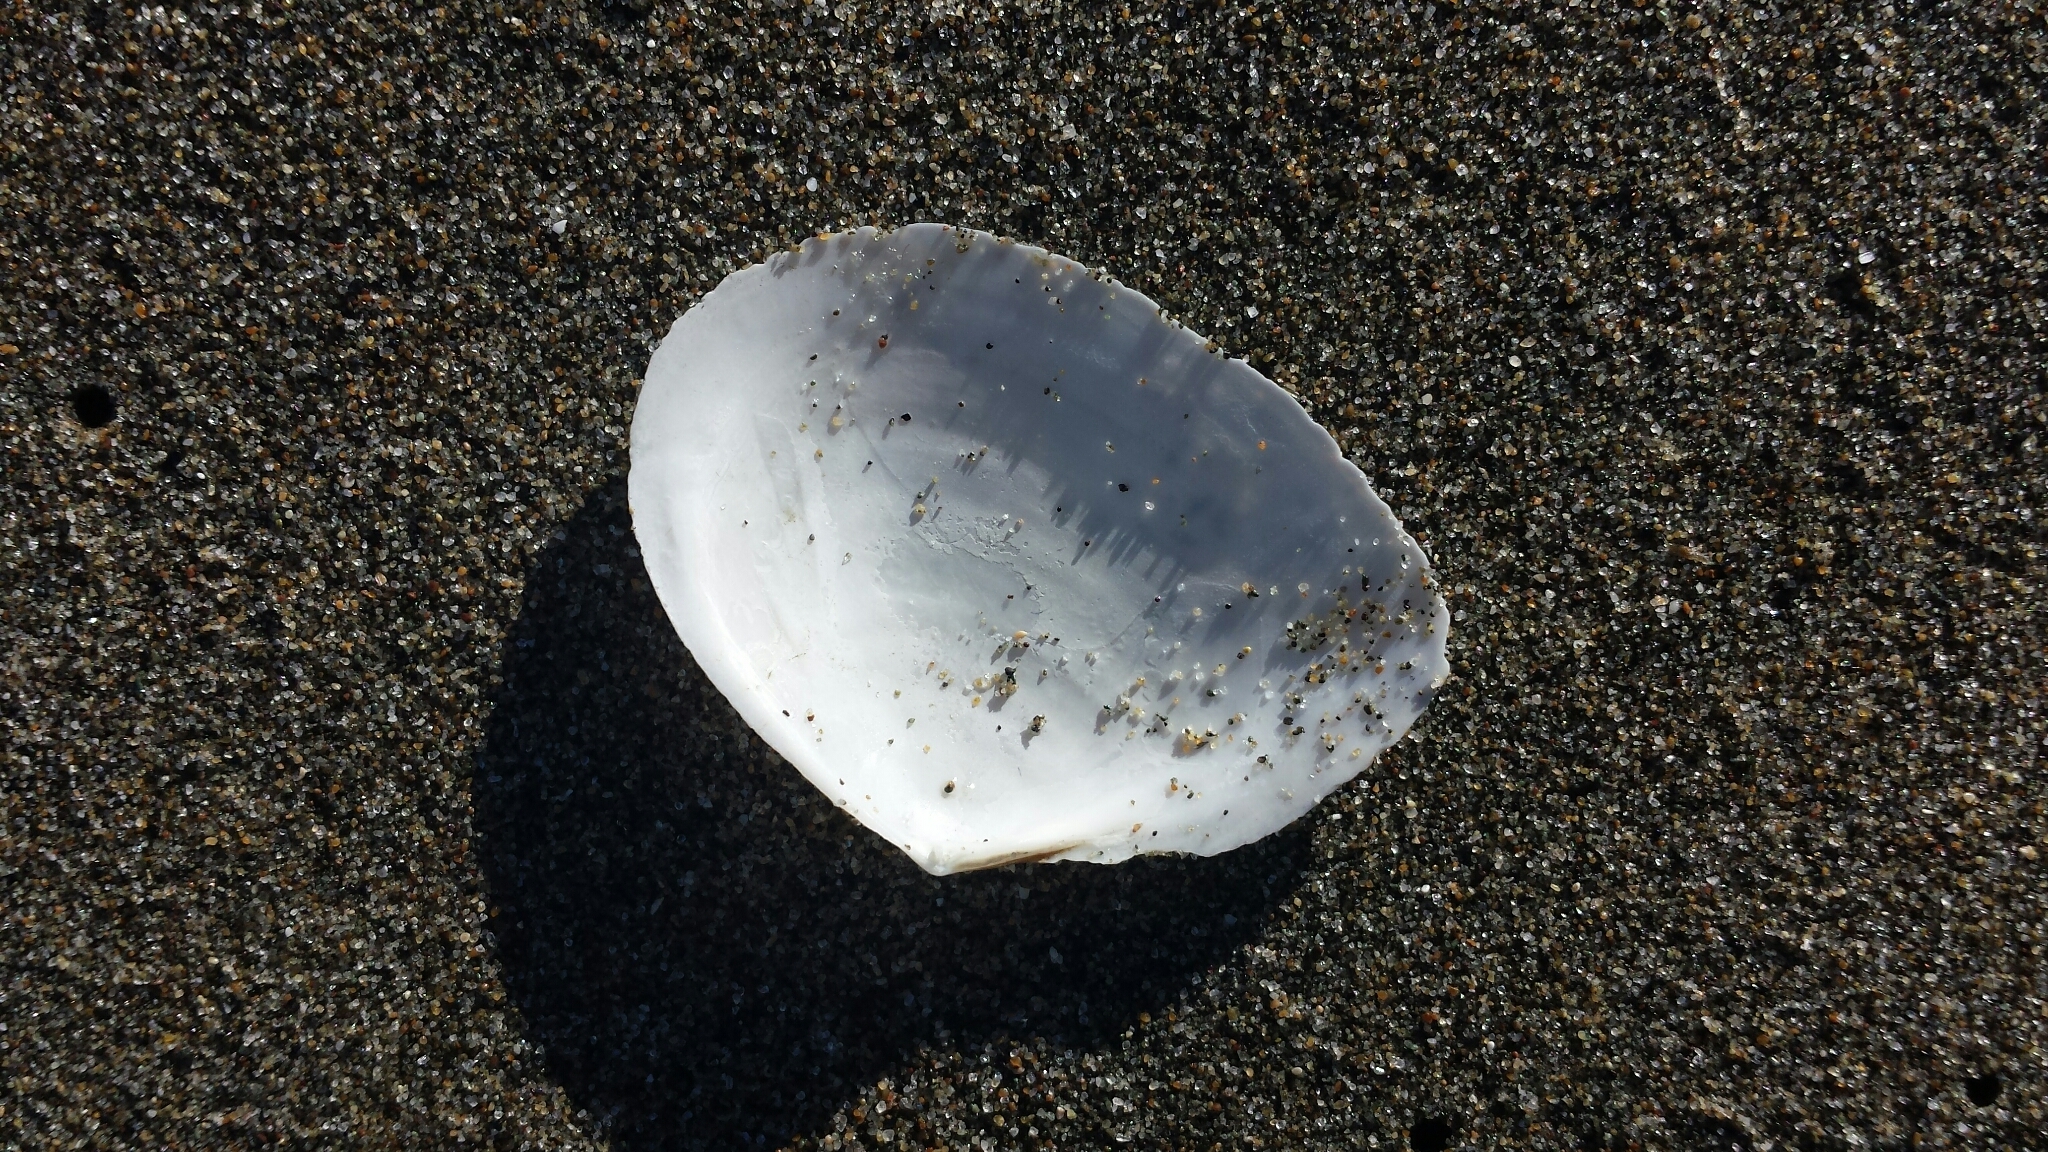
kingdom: Animalia
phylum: Mollusca
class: Bivalvia
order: Cardiida
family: Tellinidae
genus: Rexithaerus
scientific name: Rexithaerus secta
